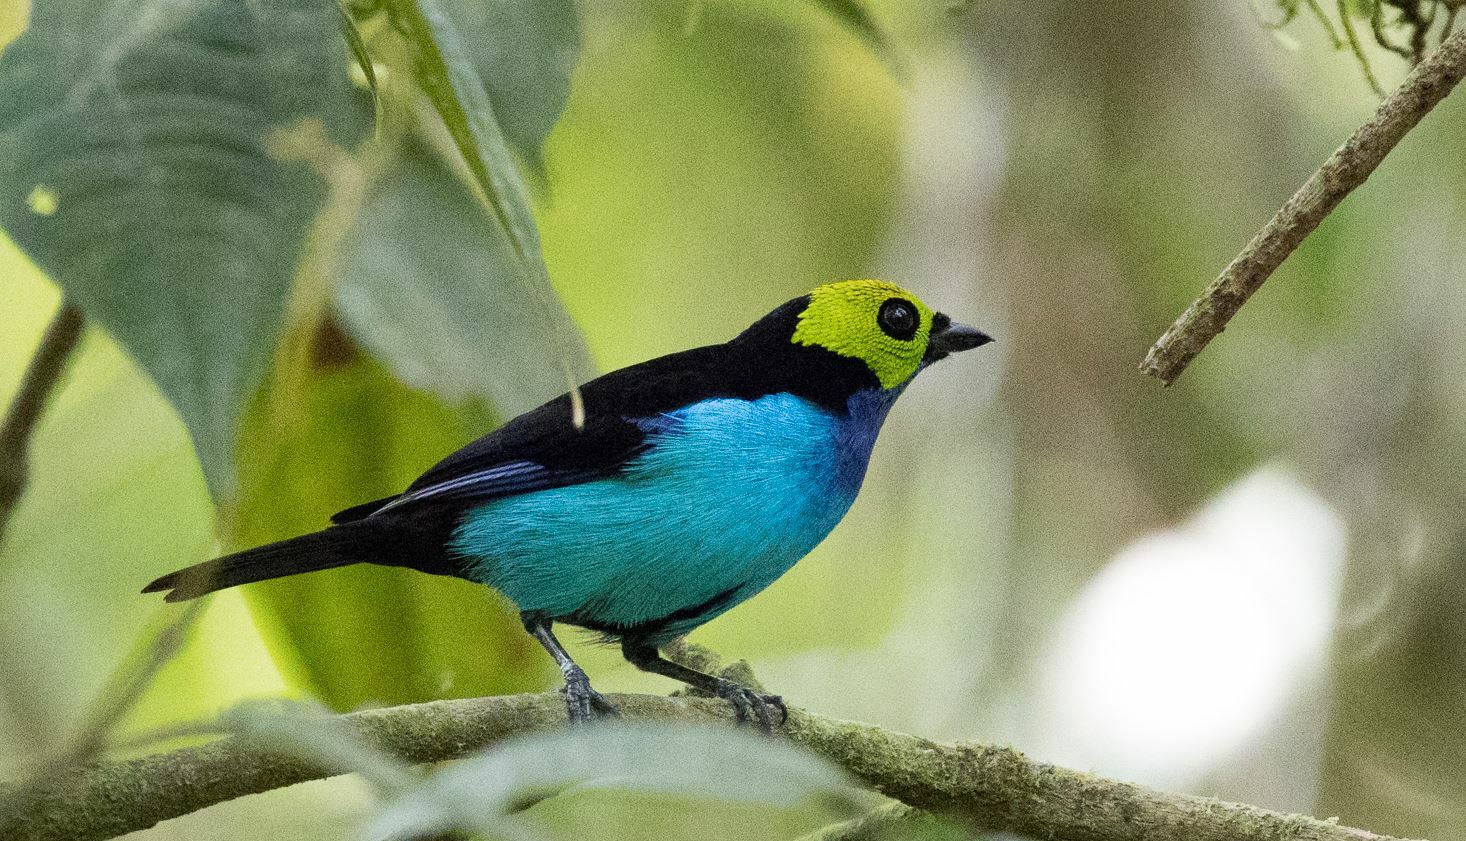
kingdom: Animalia
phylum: Chordata
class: Aves
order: Passeriformes
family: Thraupidae
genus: Tangara
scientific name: Tangara chilensis
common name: Paradise tanager
